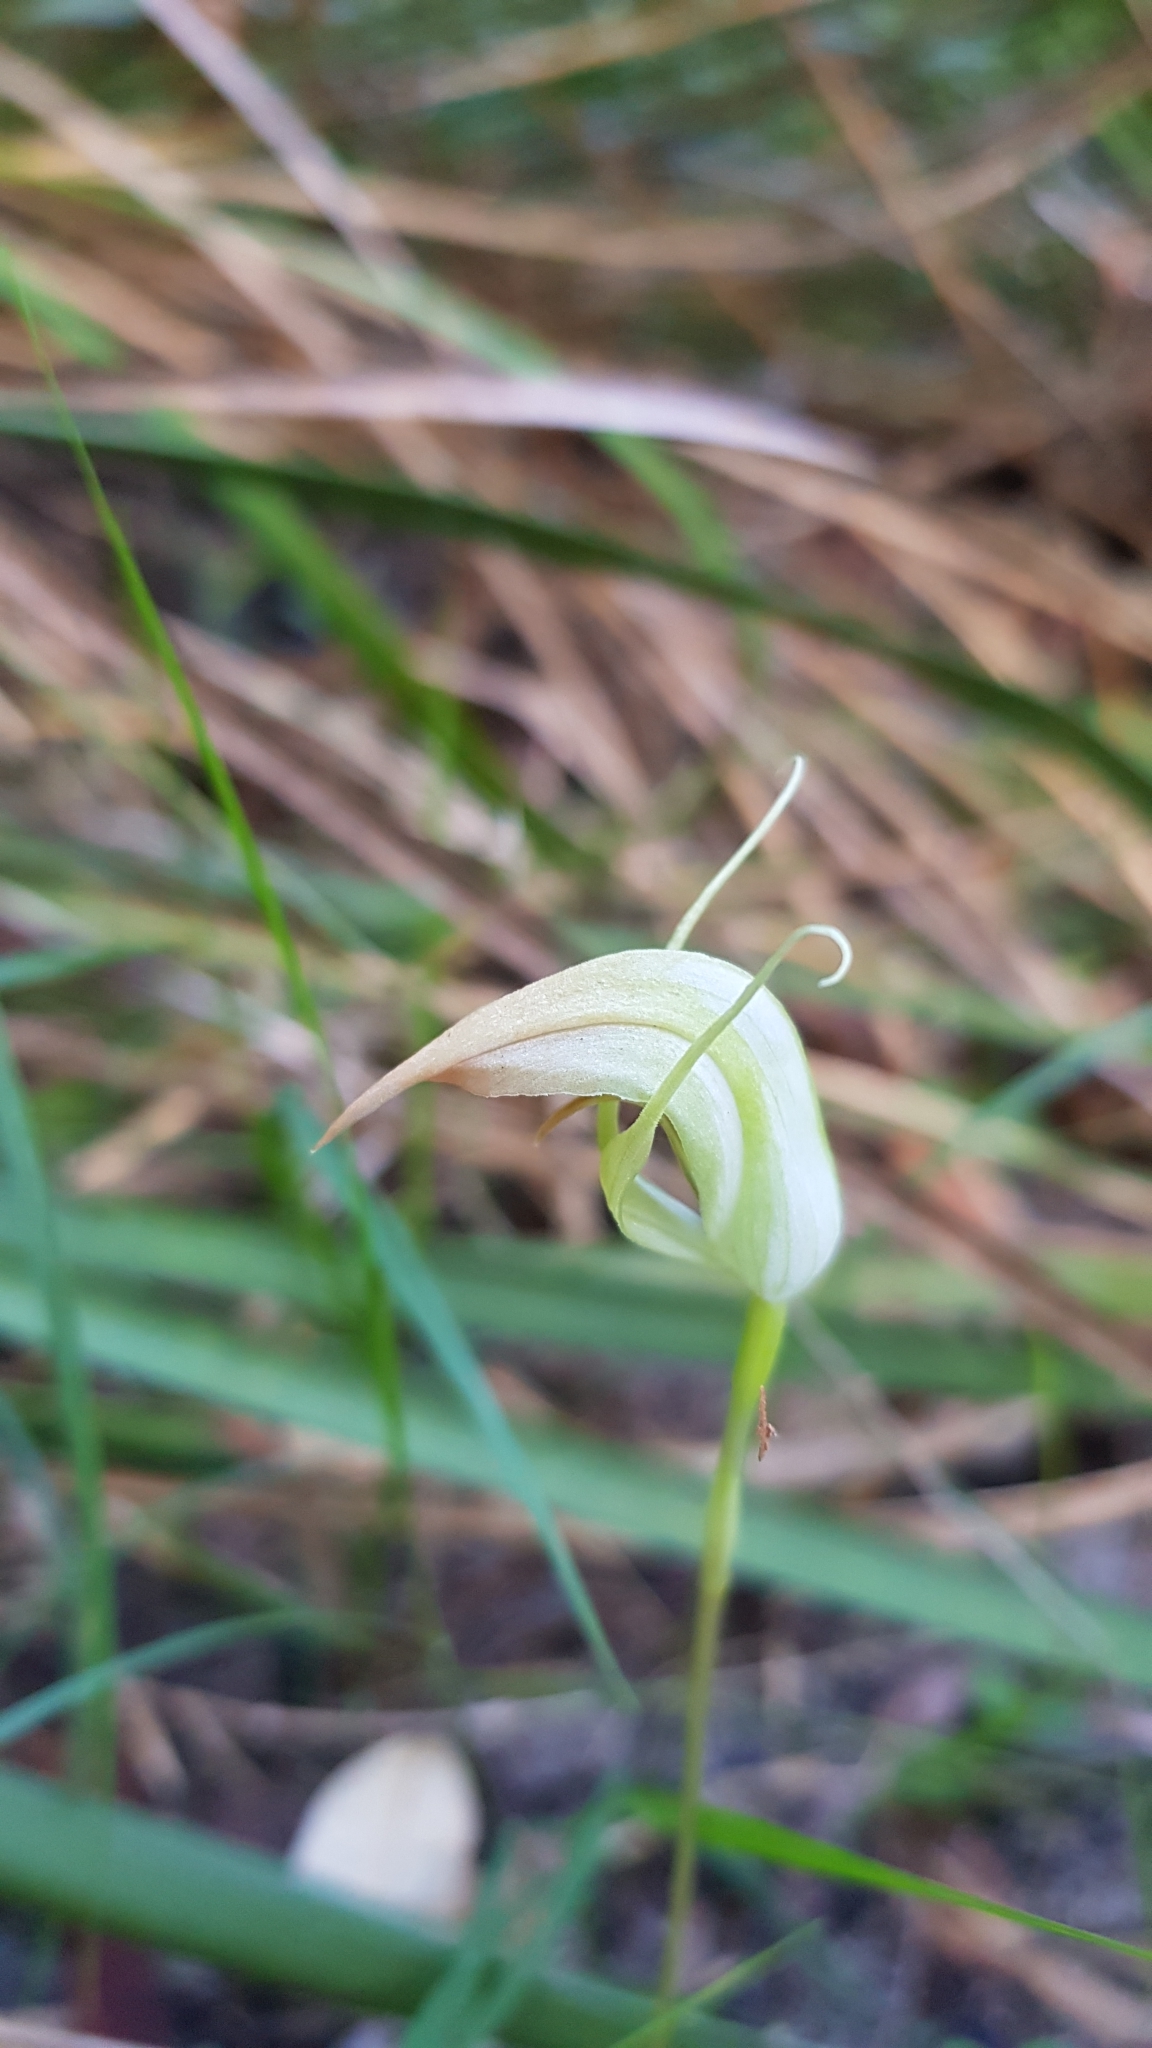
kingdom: Plantae
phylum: Tracheophyta
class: Liliopsida
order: Asparagales
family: Orchidaceae
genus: Pterostylis
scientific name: Pterostylis acuminata
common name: Pointed greenhood
